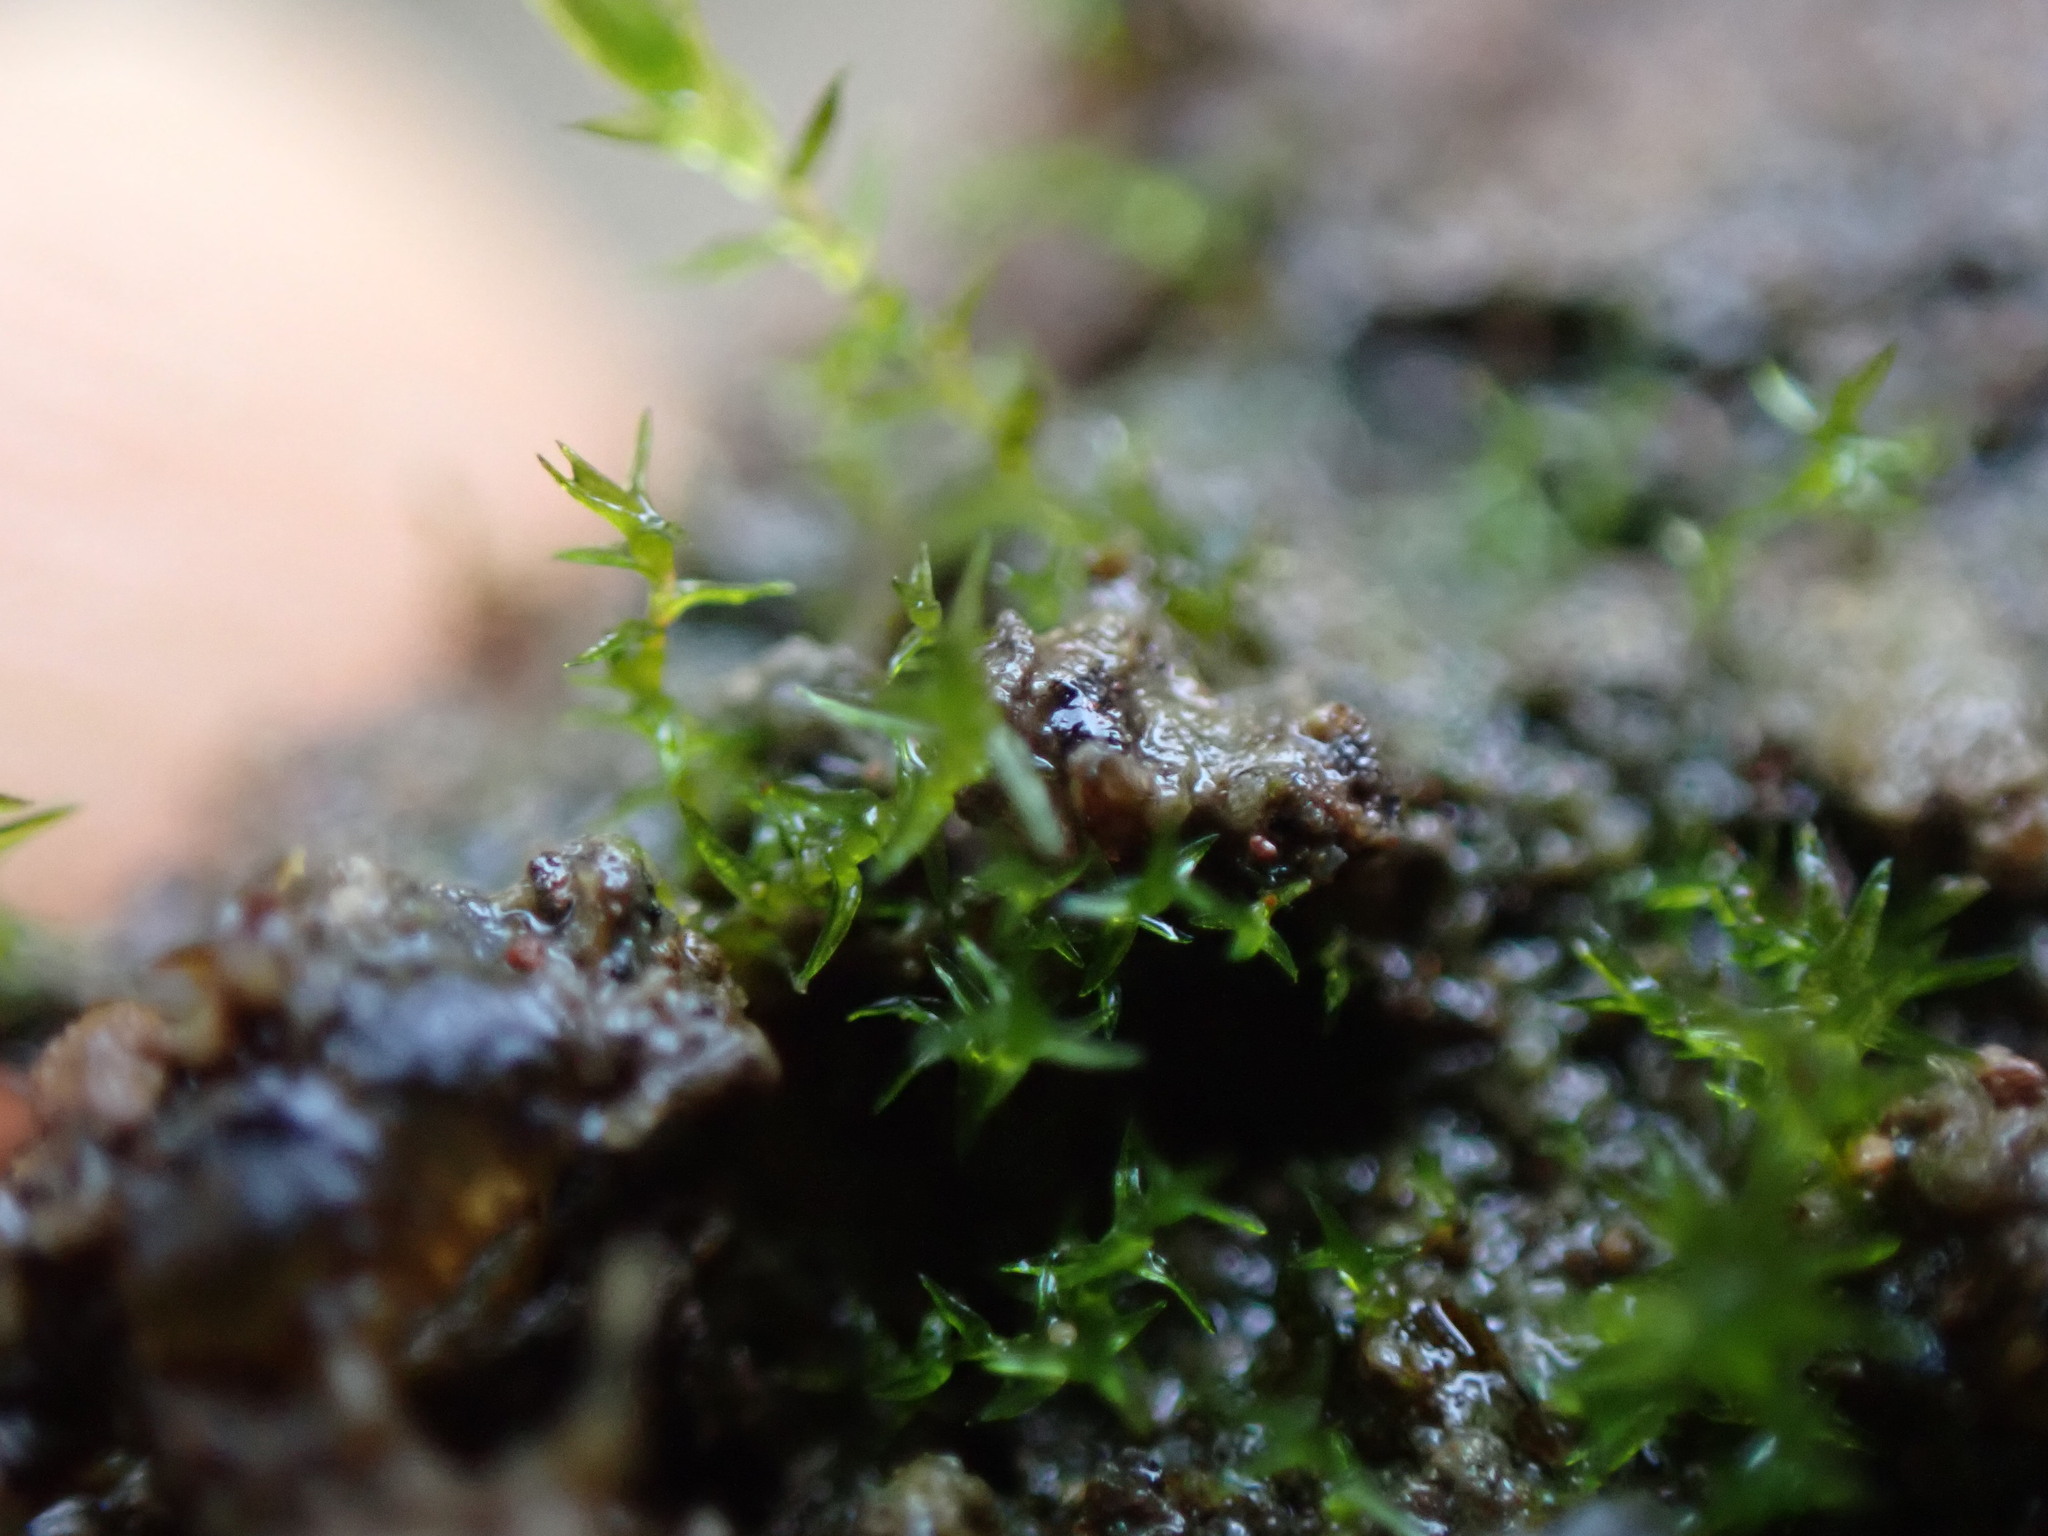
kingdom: Plantae
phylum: Bryophyta
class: Bryopsida
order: Dicranales
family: Aongstroemiaceae
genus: Dichodontium
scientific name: Dichodontium pellucidum
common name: Transparent fork moss
